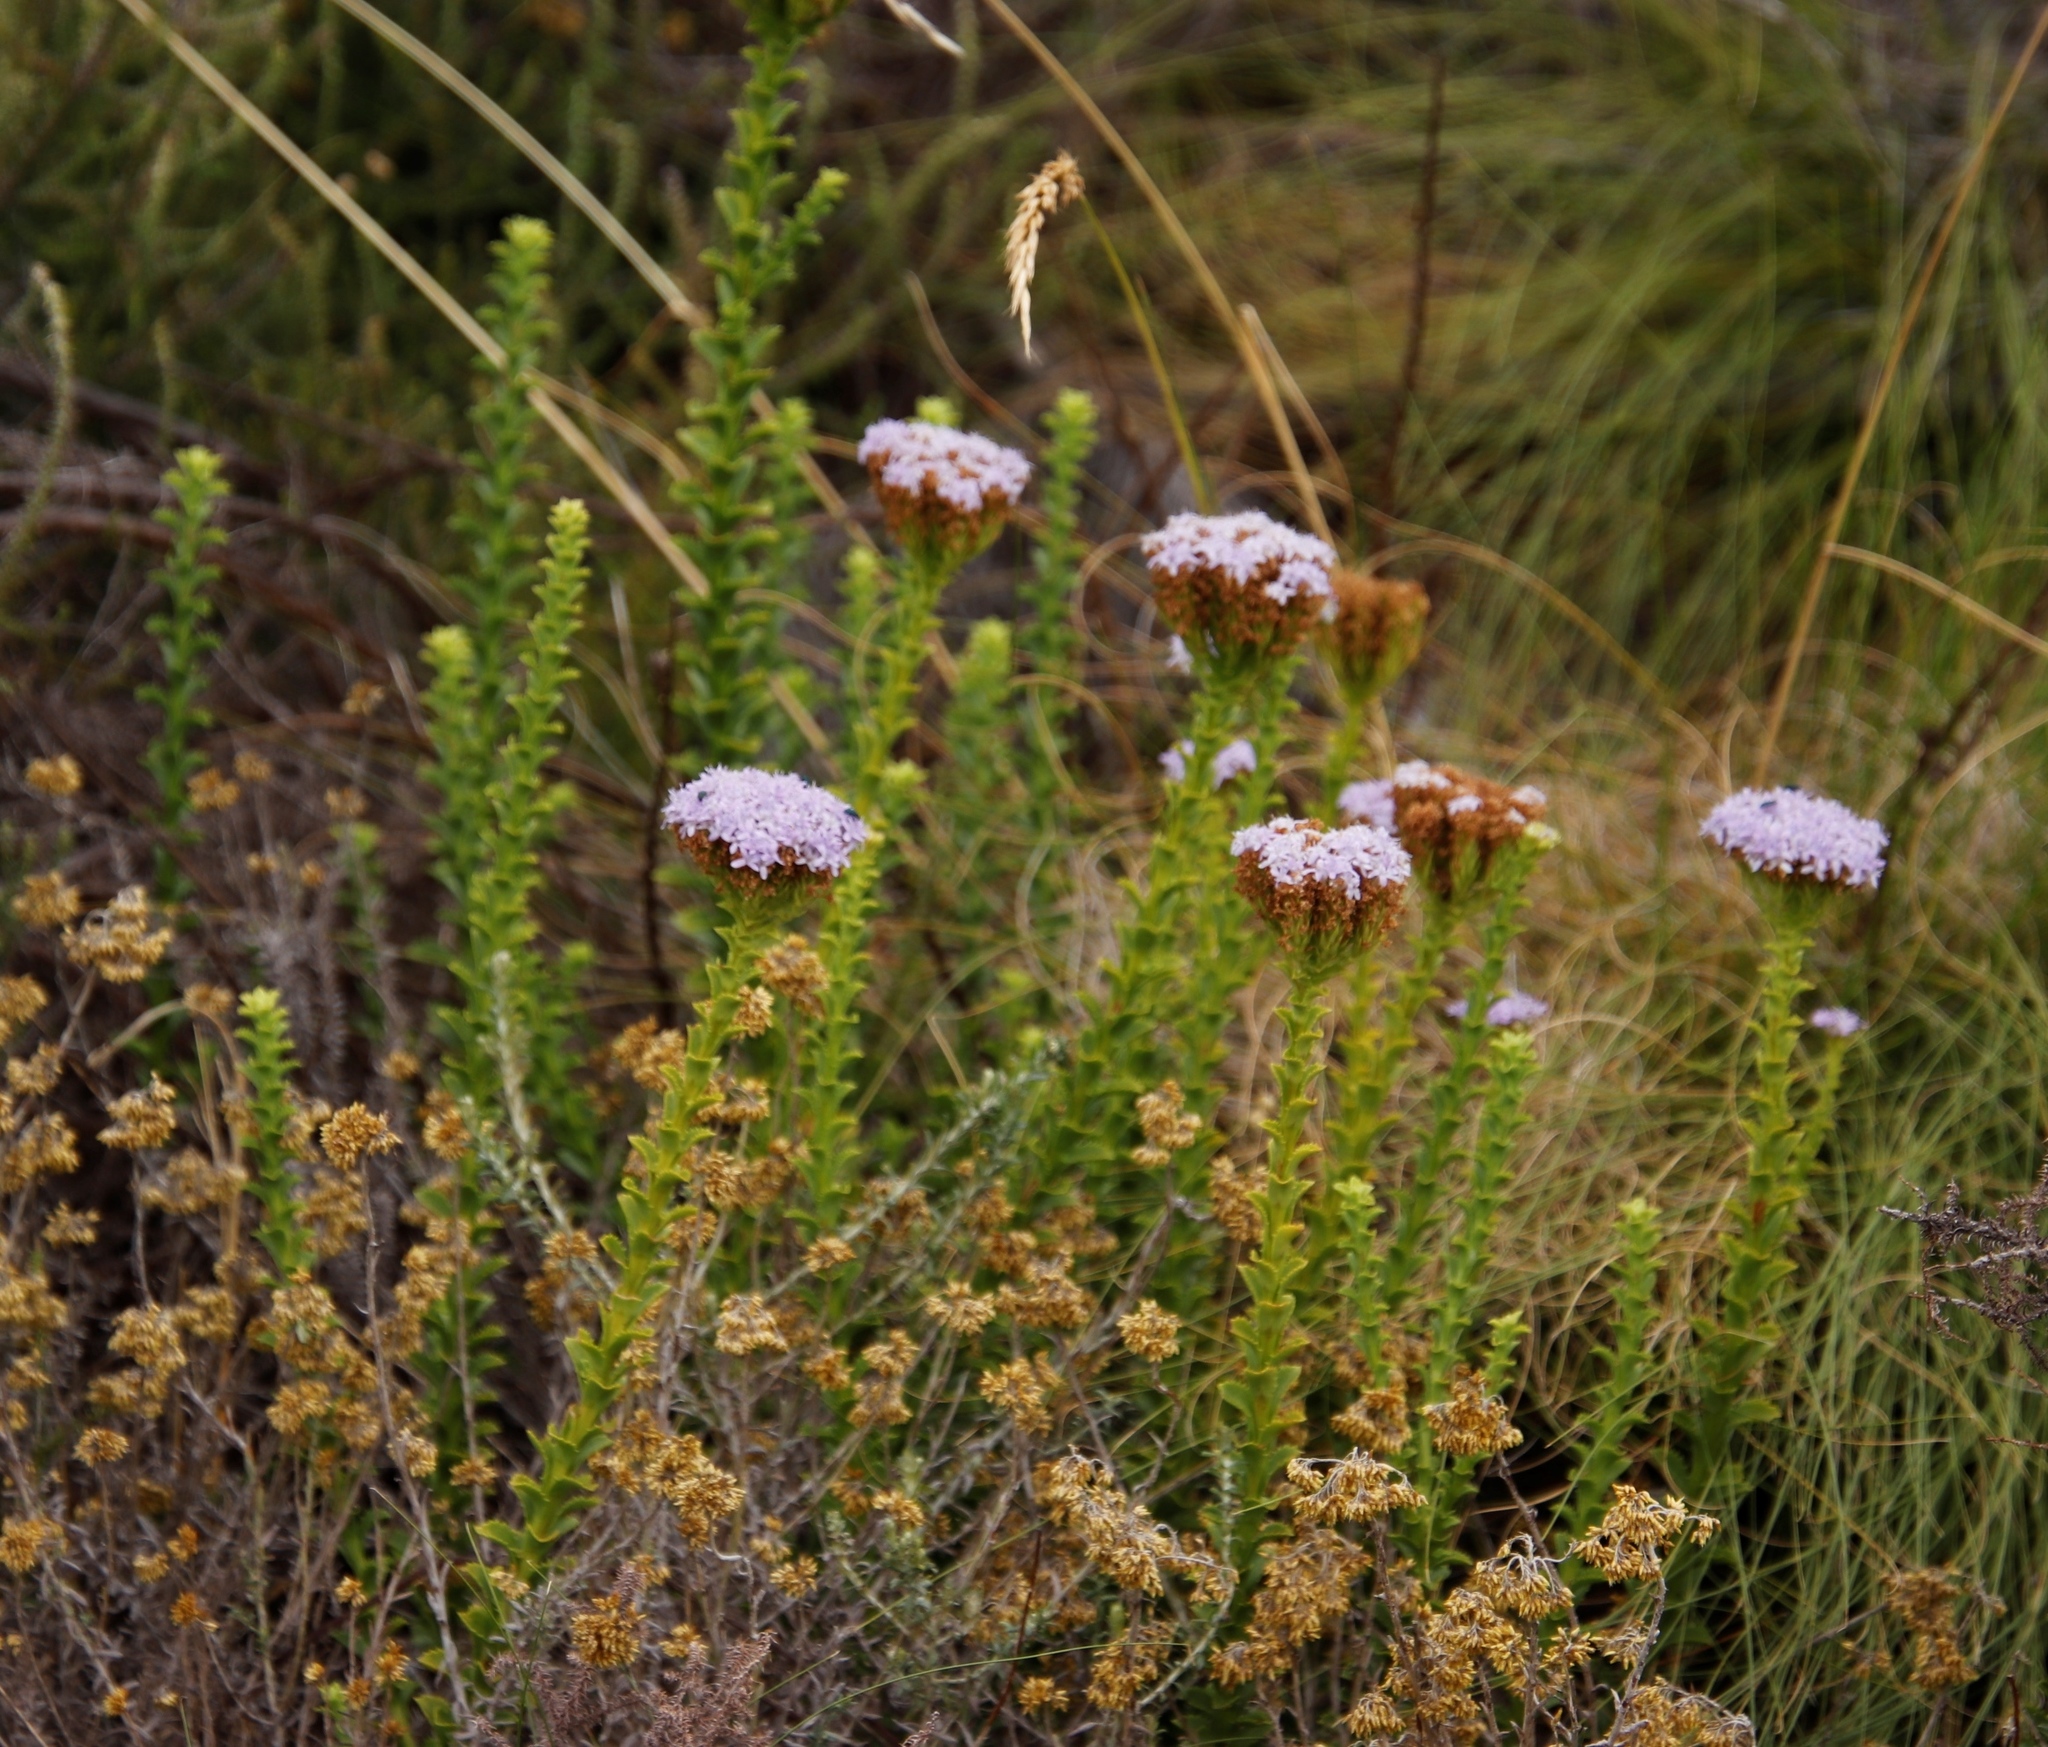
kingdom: Plantae
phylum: Tracheophyta
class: Magnoliopsida
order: Lamiales
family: Scrophulariaceae
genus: Pseudoselago
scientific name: Pseudoselago serrata
